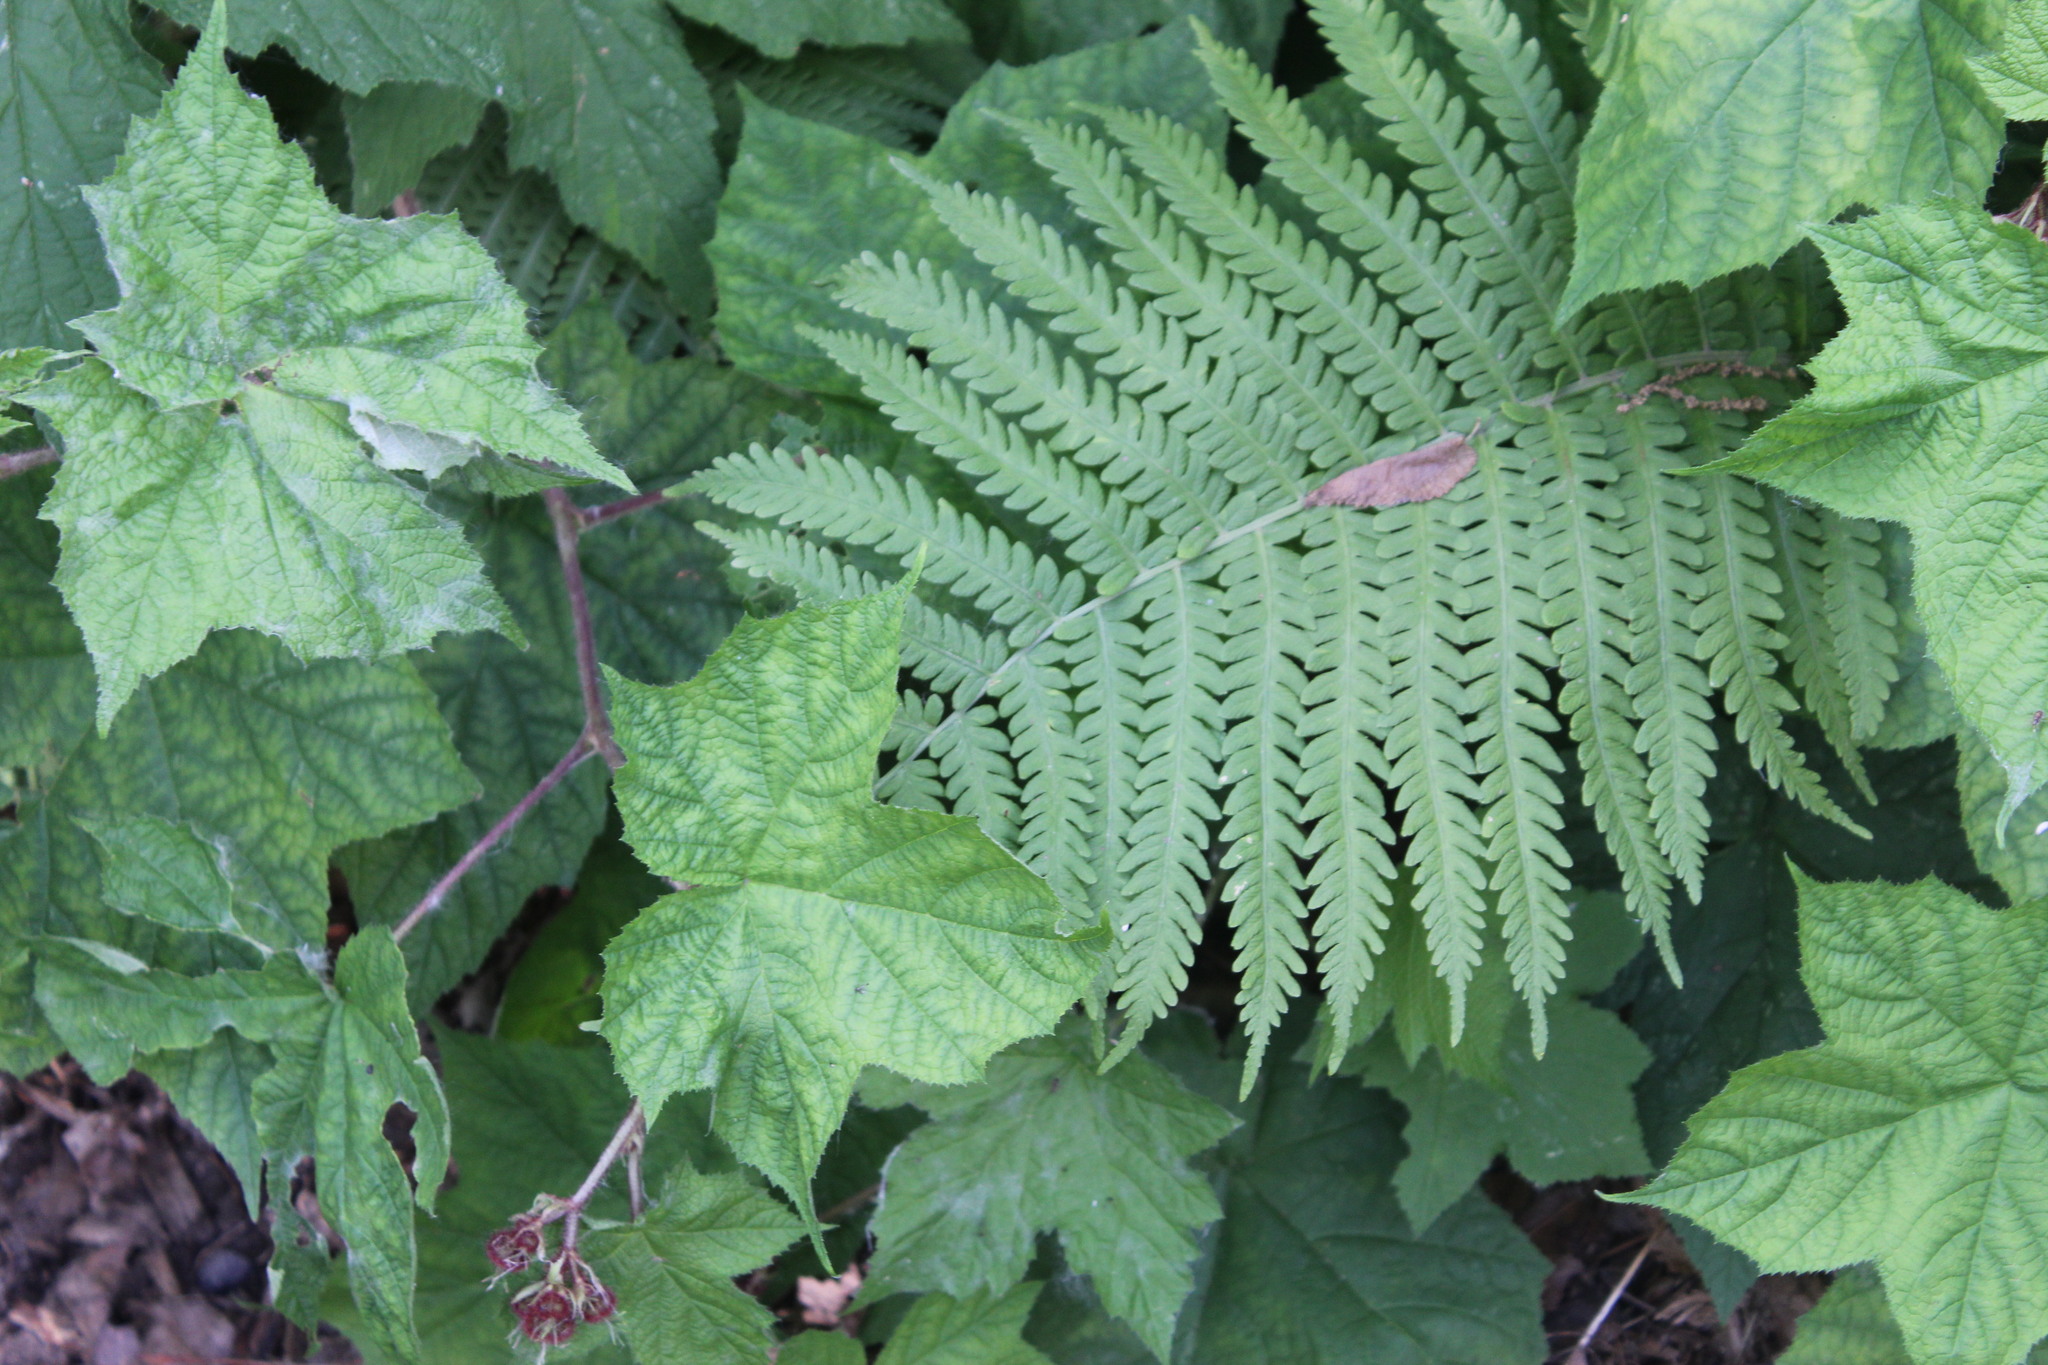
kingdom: Plantae
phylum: Tracheophyta
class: Polypodiopsida
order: Polypodiales
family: Onocleaceae
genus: Matteuccia
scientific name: Matteuccia struthiopteris
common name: Ostrich fern
